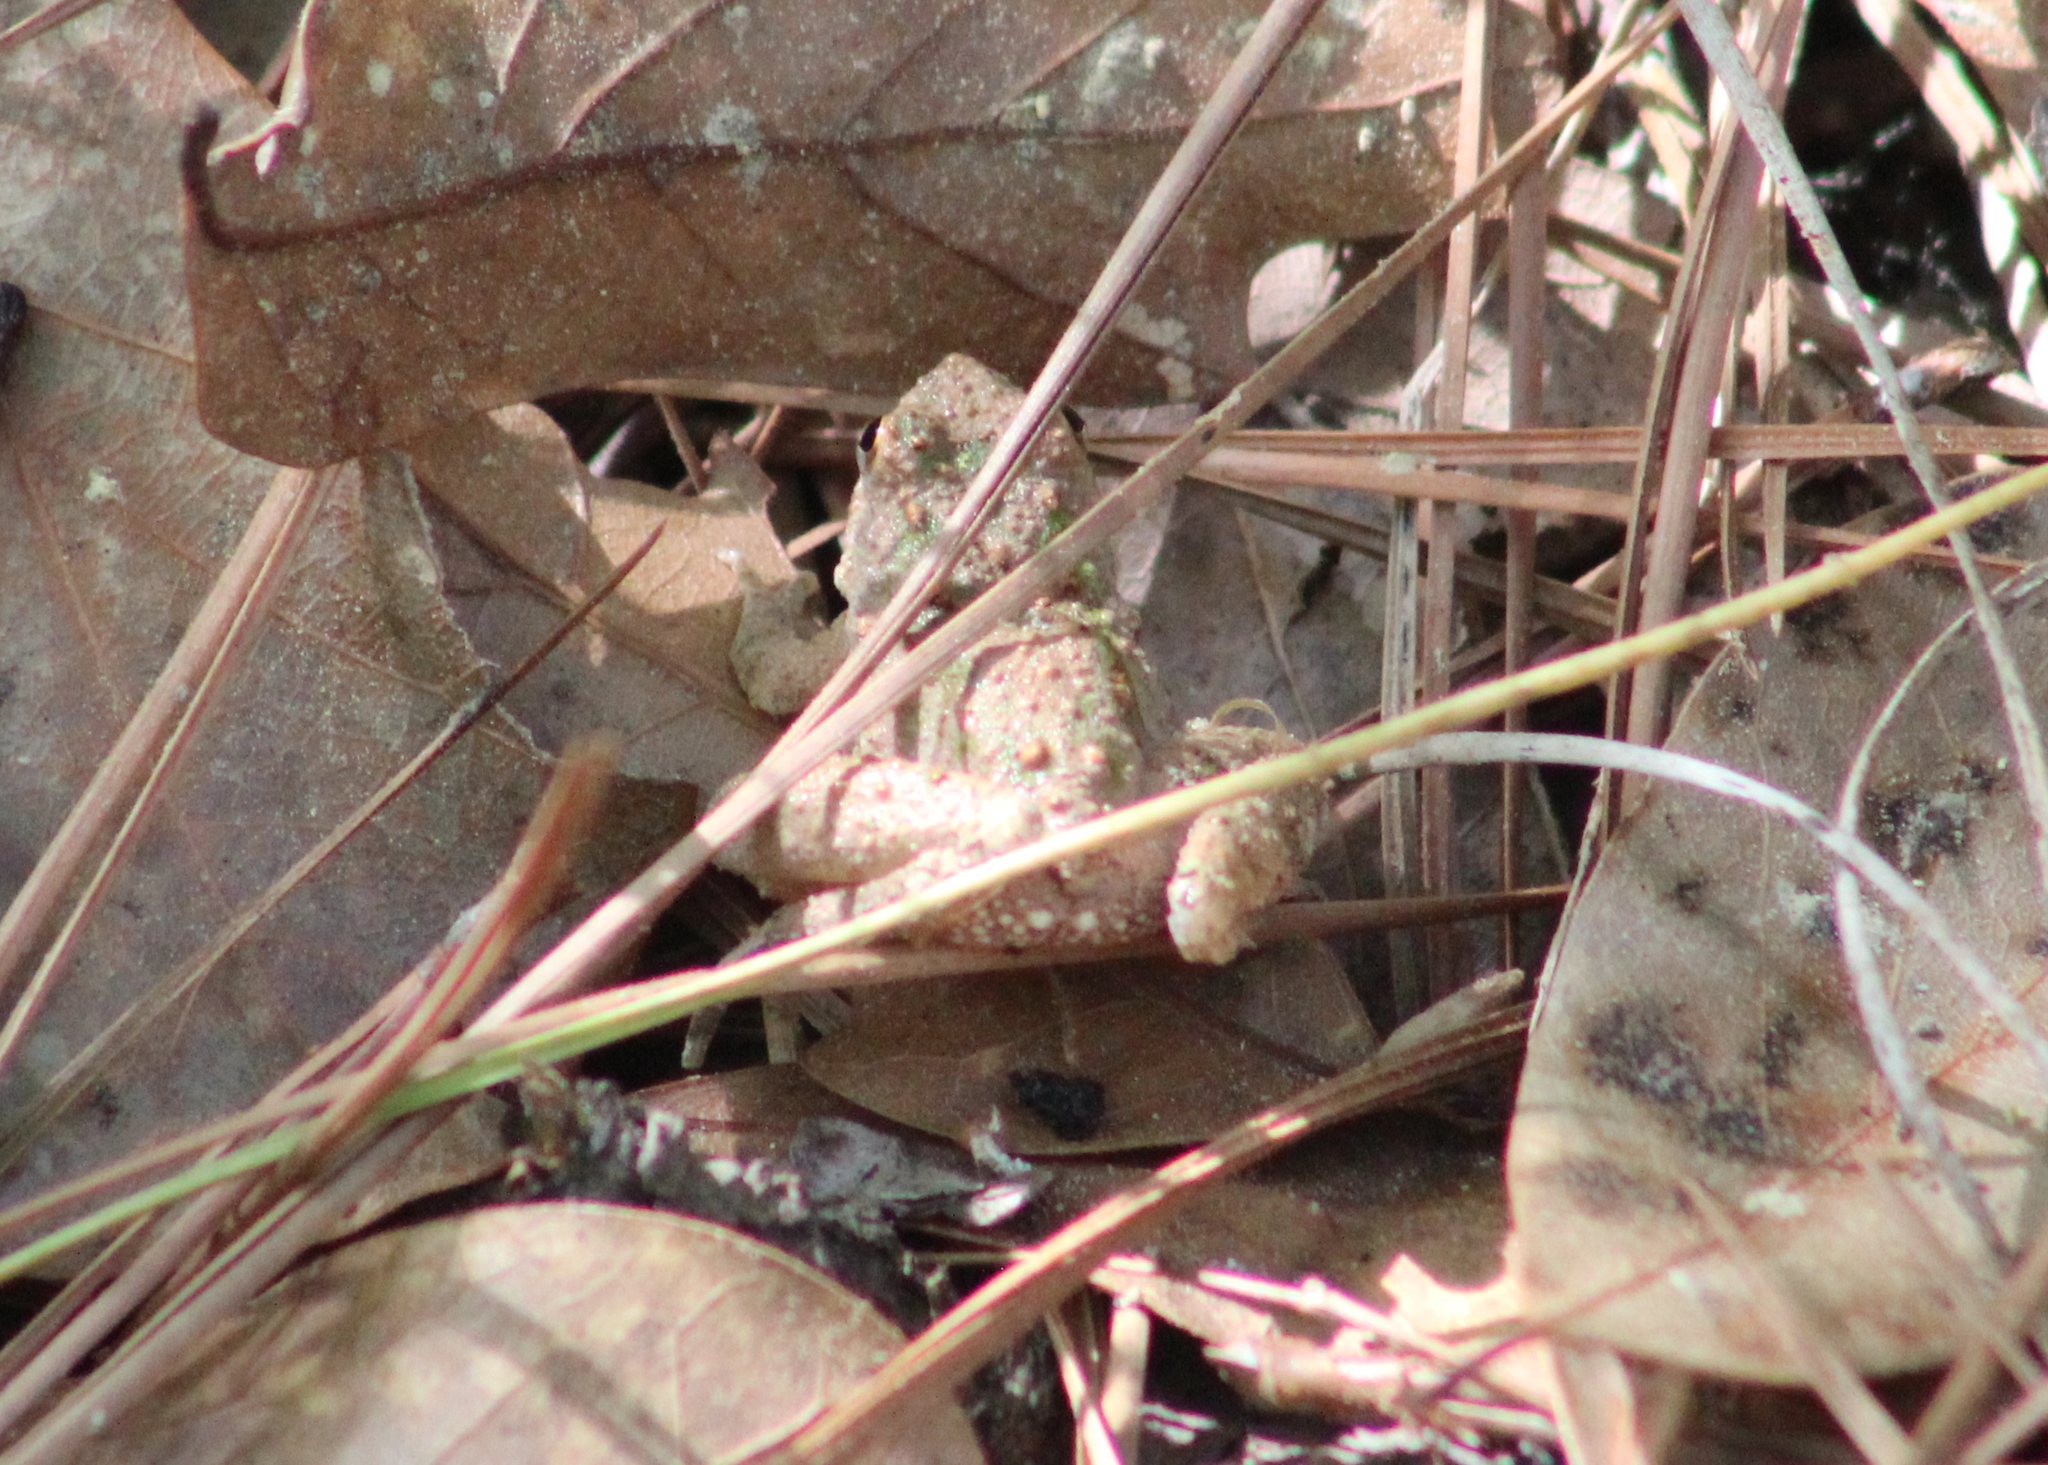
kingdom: Animalia
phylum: Chordata
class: Amphibia
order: Anura
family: Hylidae
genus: Acris
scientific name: Acris blanchardi
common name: Blanchard's cricket frog
